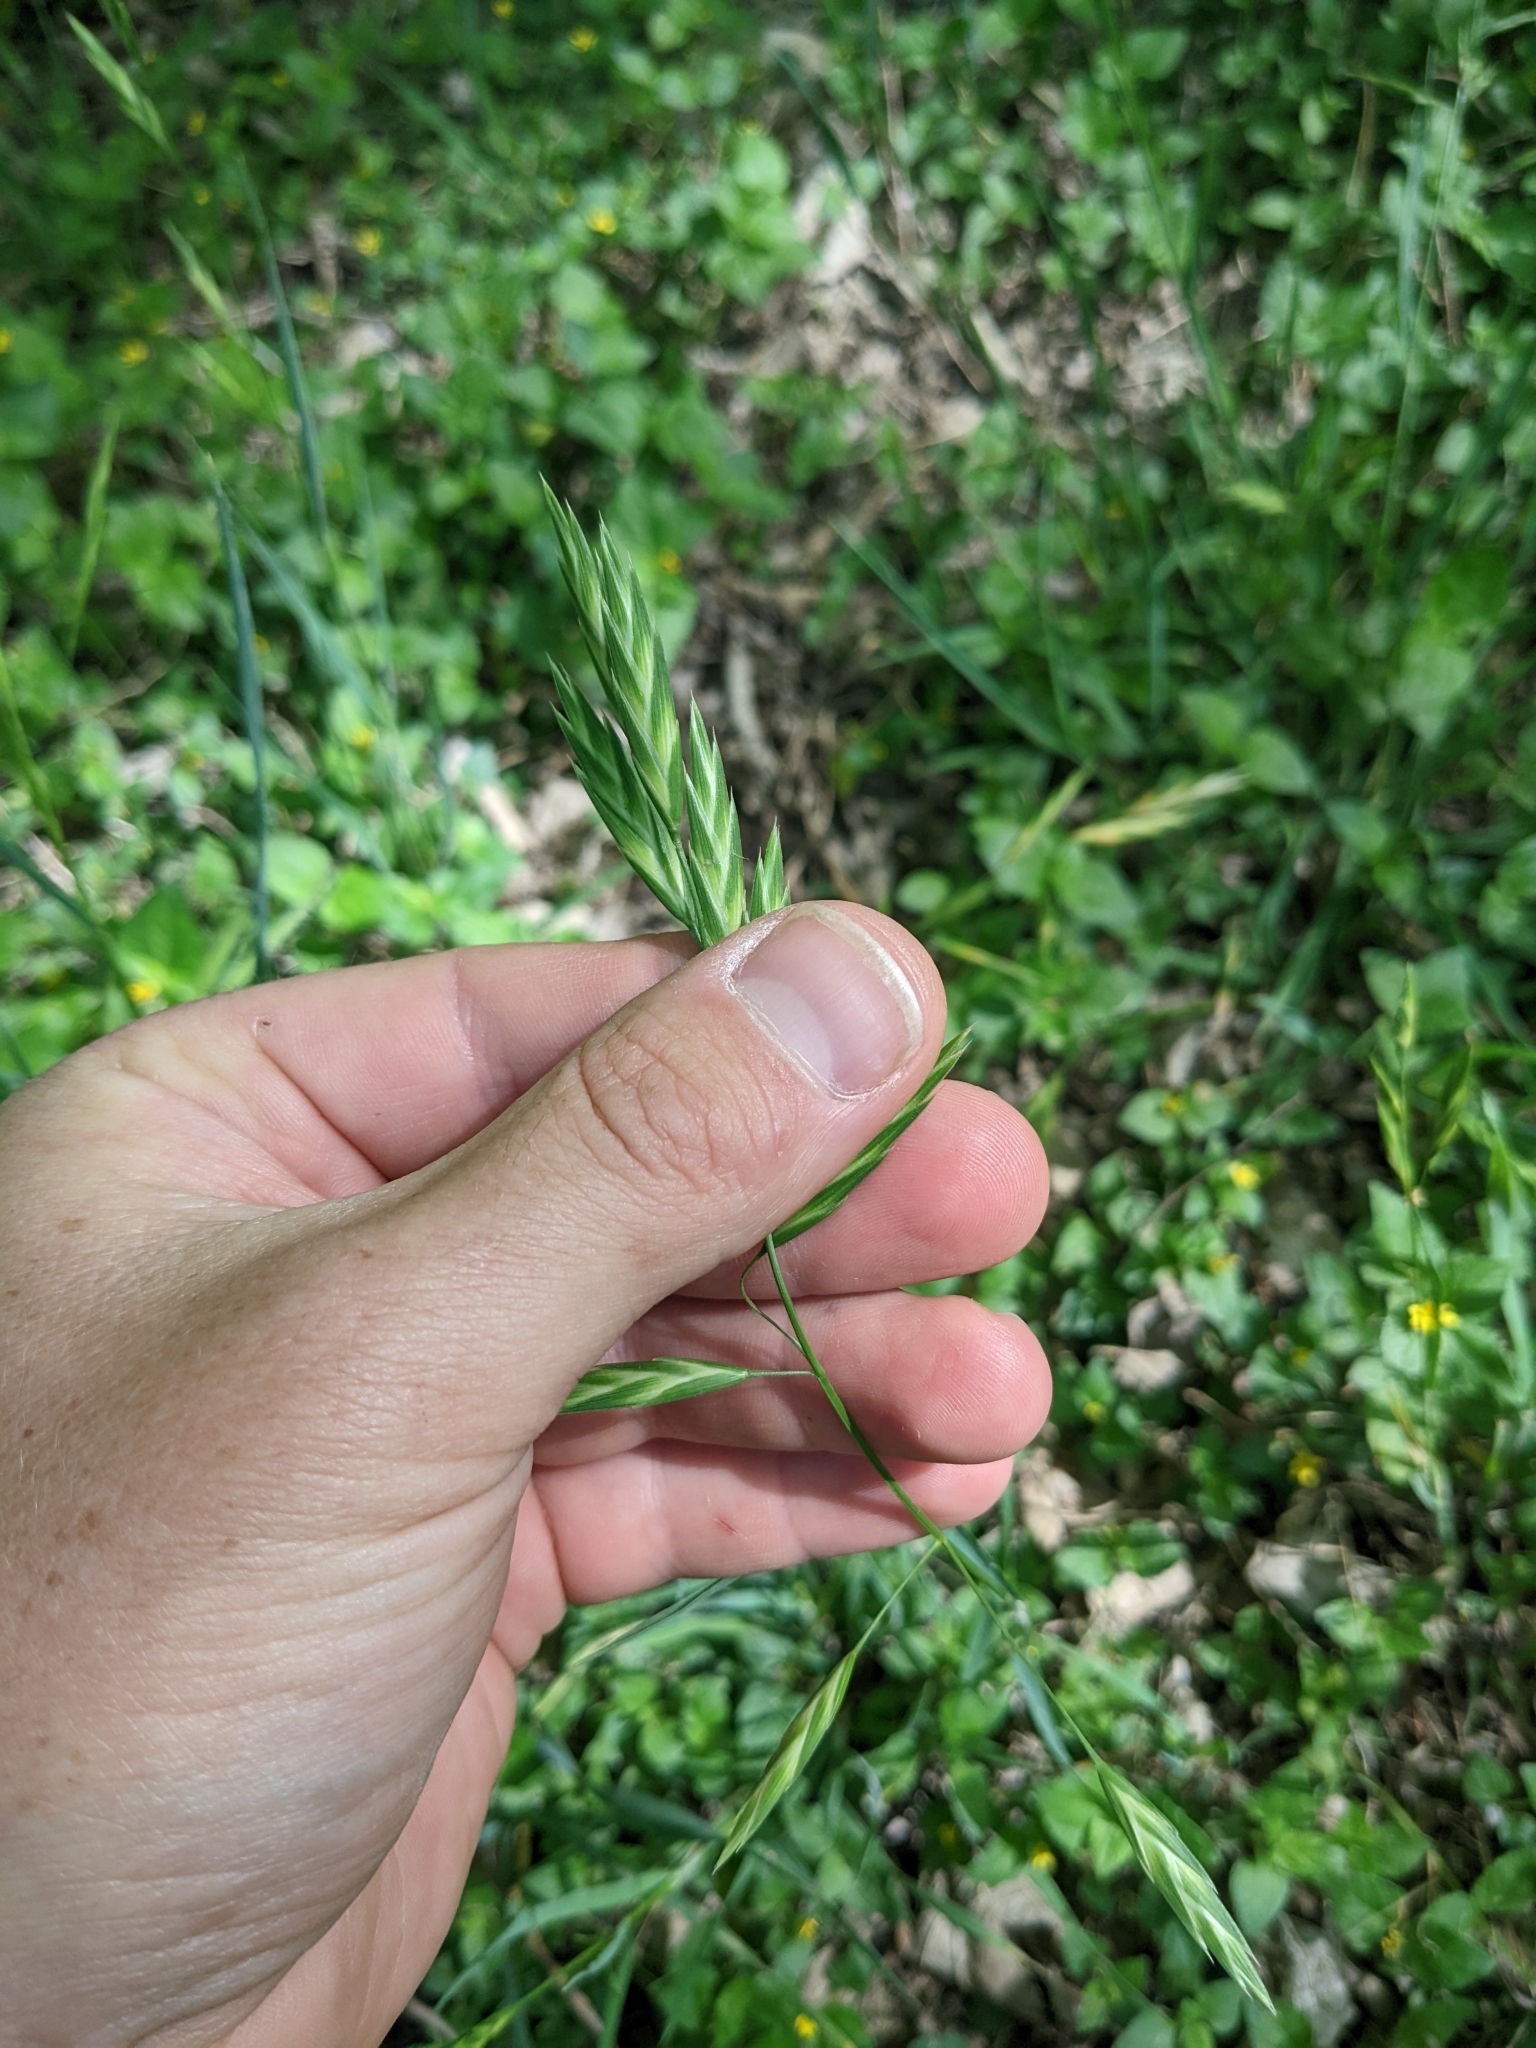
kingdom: Plantae
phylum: Tracheophyta
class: Liliopsida
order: Poales
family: Poaceae
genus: Bromus
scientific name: Bromus catharticus
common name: Rescuegrass
